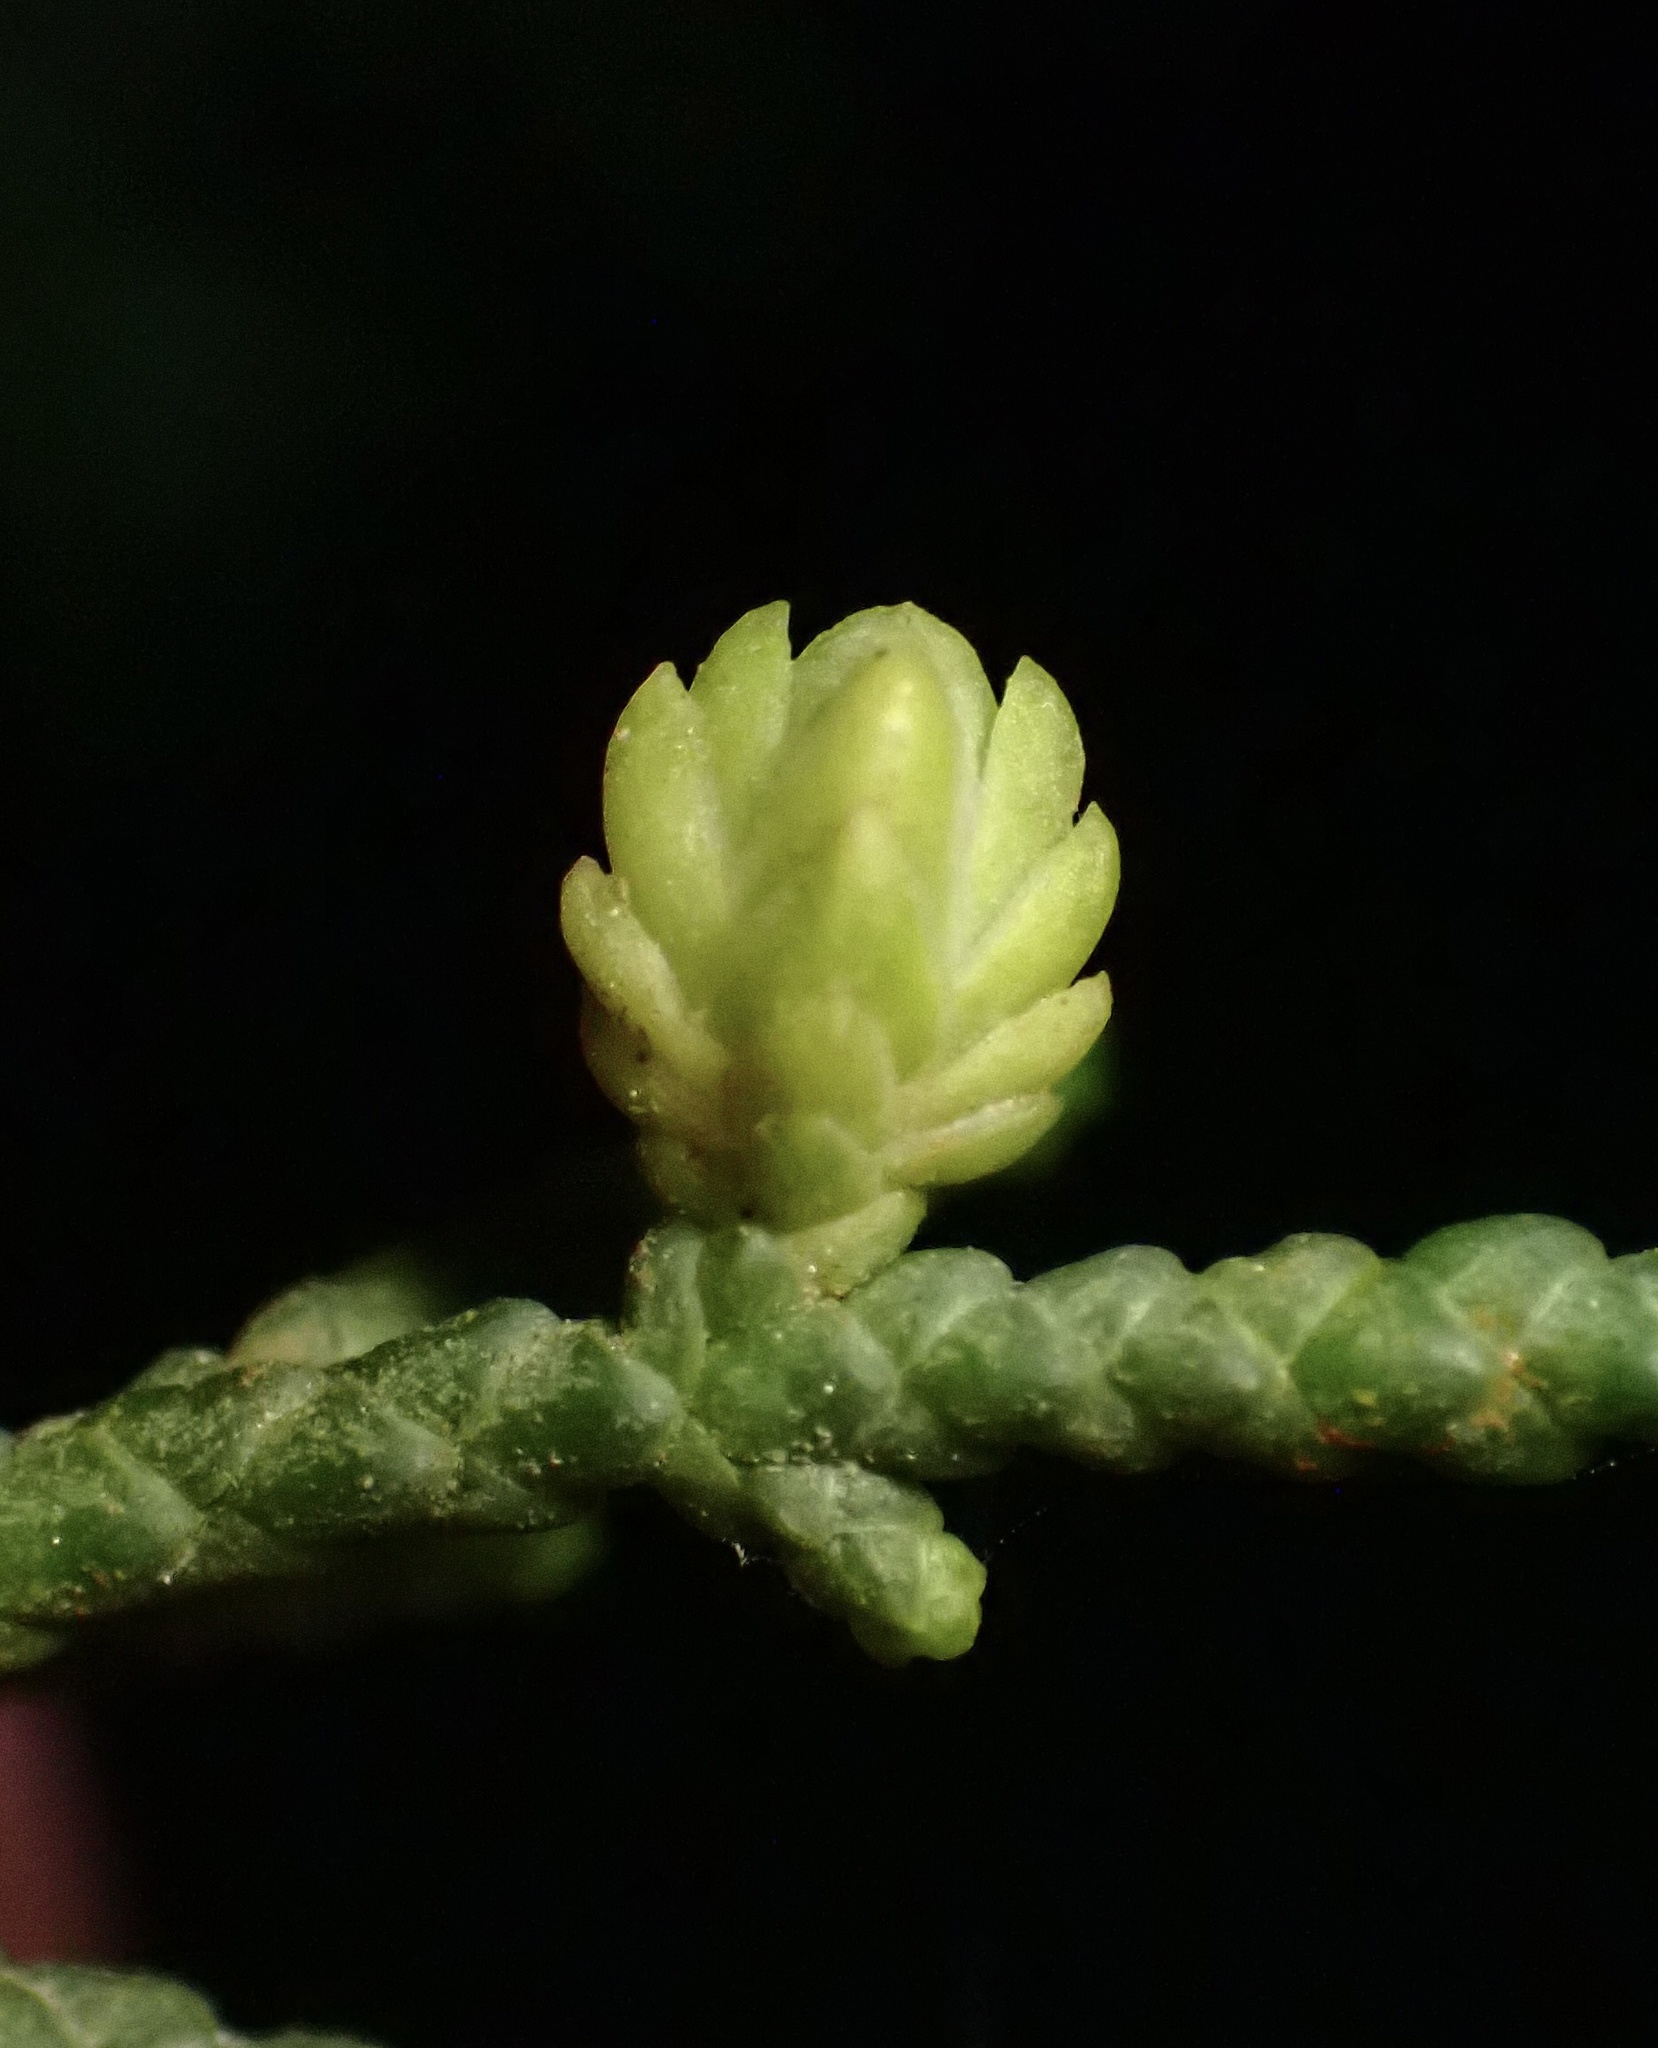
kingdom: Animalia
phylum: Arthropoda
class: Insecta
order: Diptera
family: Cecidomyiidae
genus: Oligotrophus
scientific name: Oligotrophus cupressi
